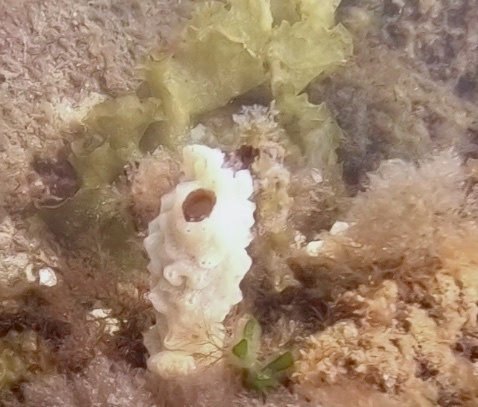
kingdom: Animalia
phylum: Chordata
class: Ascidiacea
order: Stolidobranchia
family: Styelidae
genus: Styela
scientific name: Styela clava
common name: Leathery sea squirt
